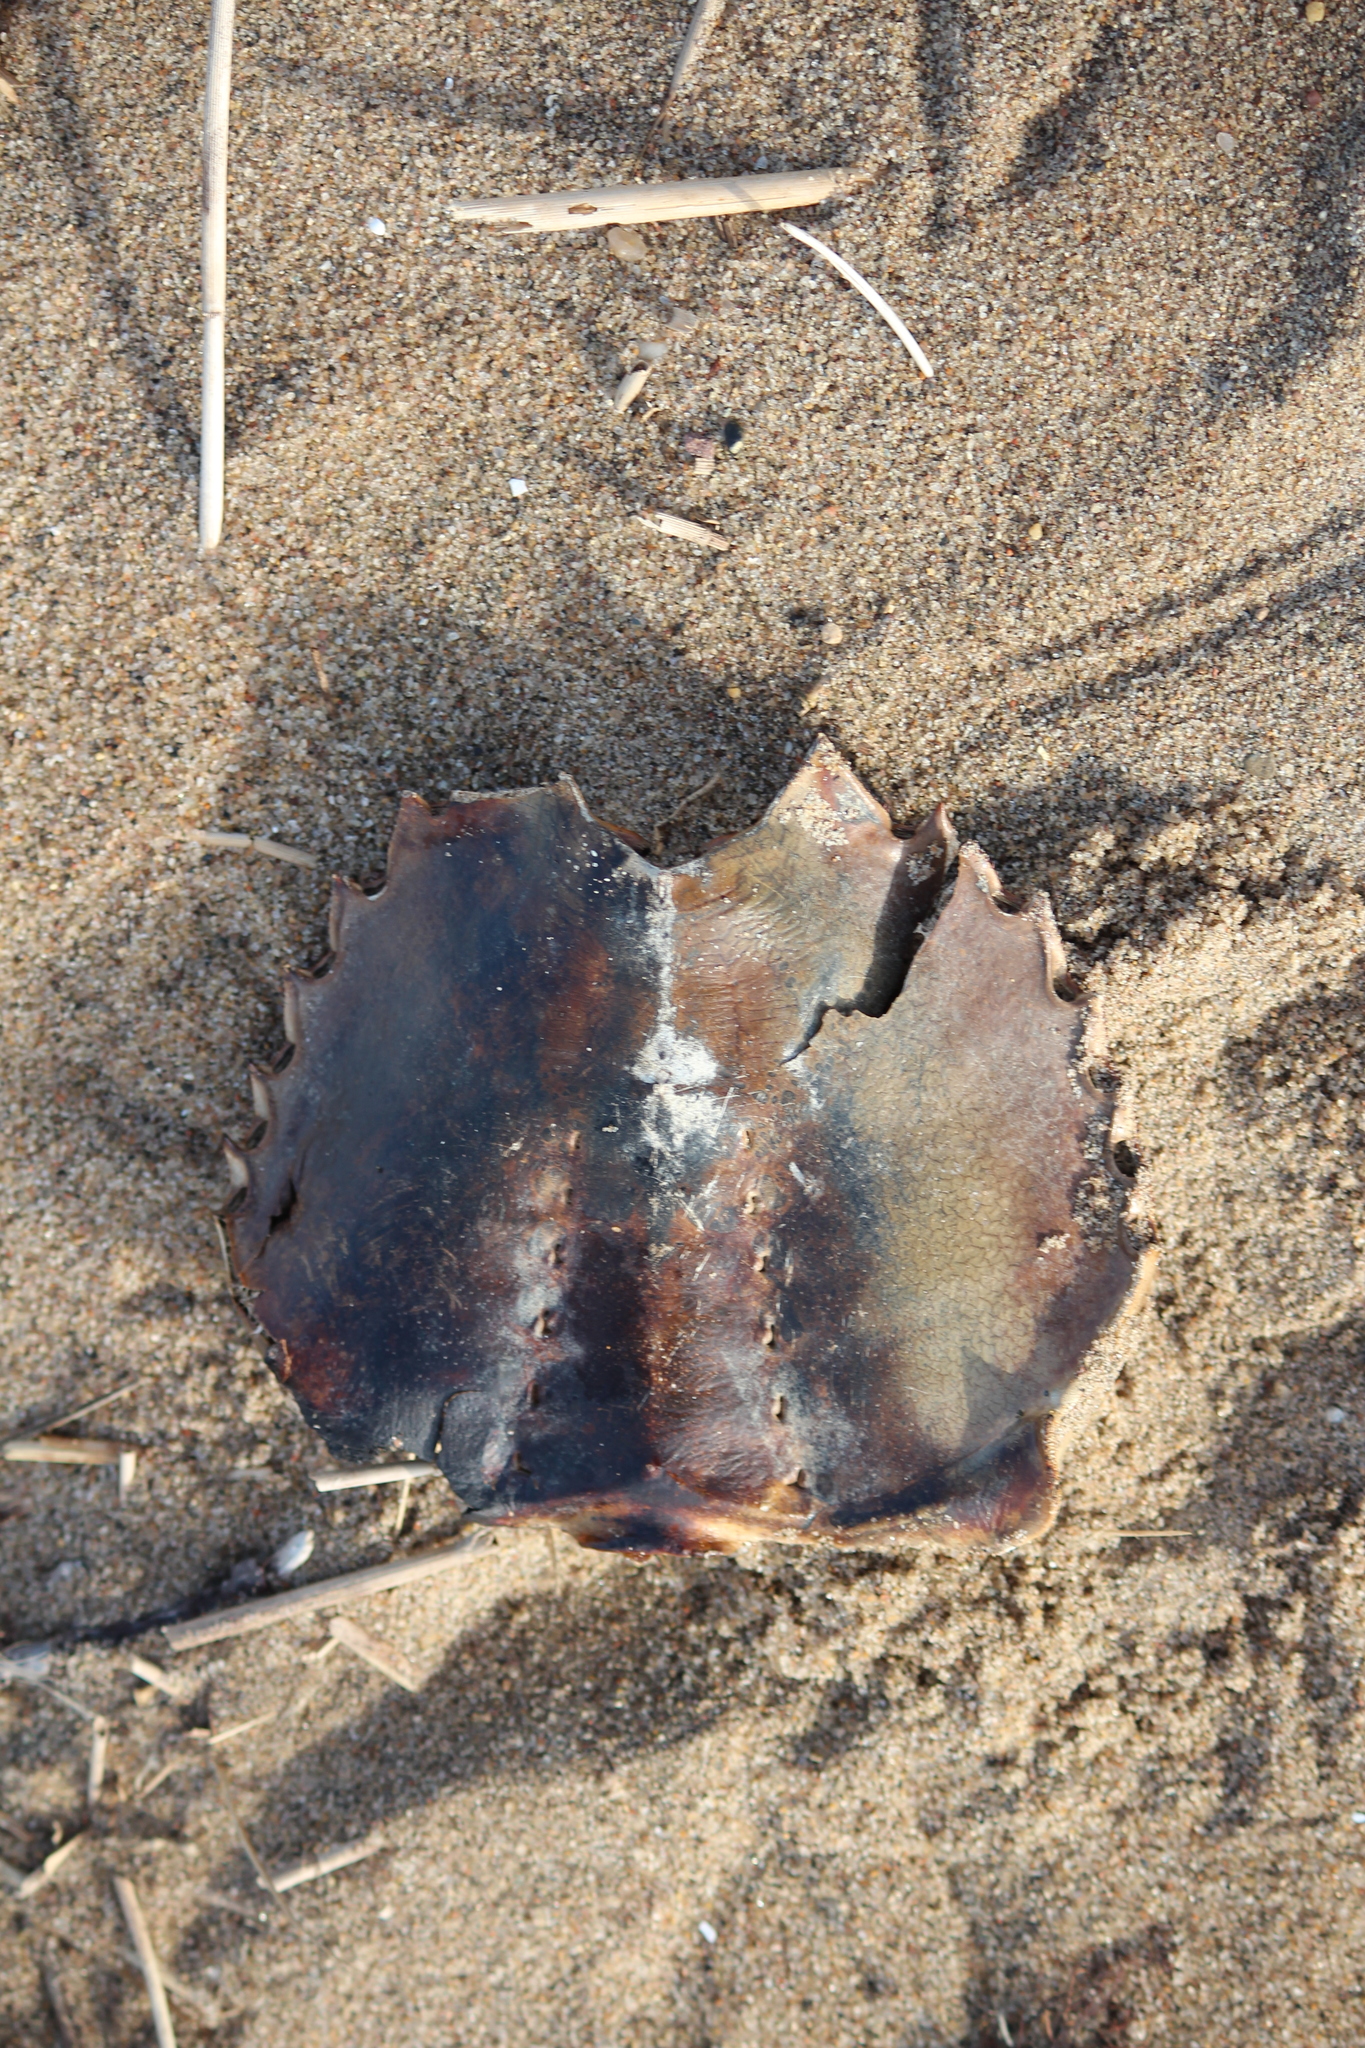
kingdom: Animalia
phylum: Arthropoda
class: Merostomata
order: Xiphosurida
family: Limulidae
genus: Limulus
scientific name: Limulus polyphemus
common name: Horseshoe crab
